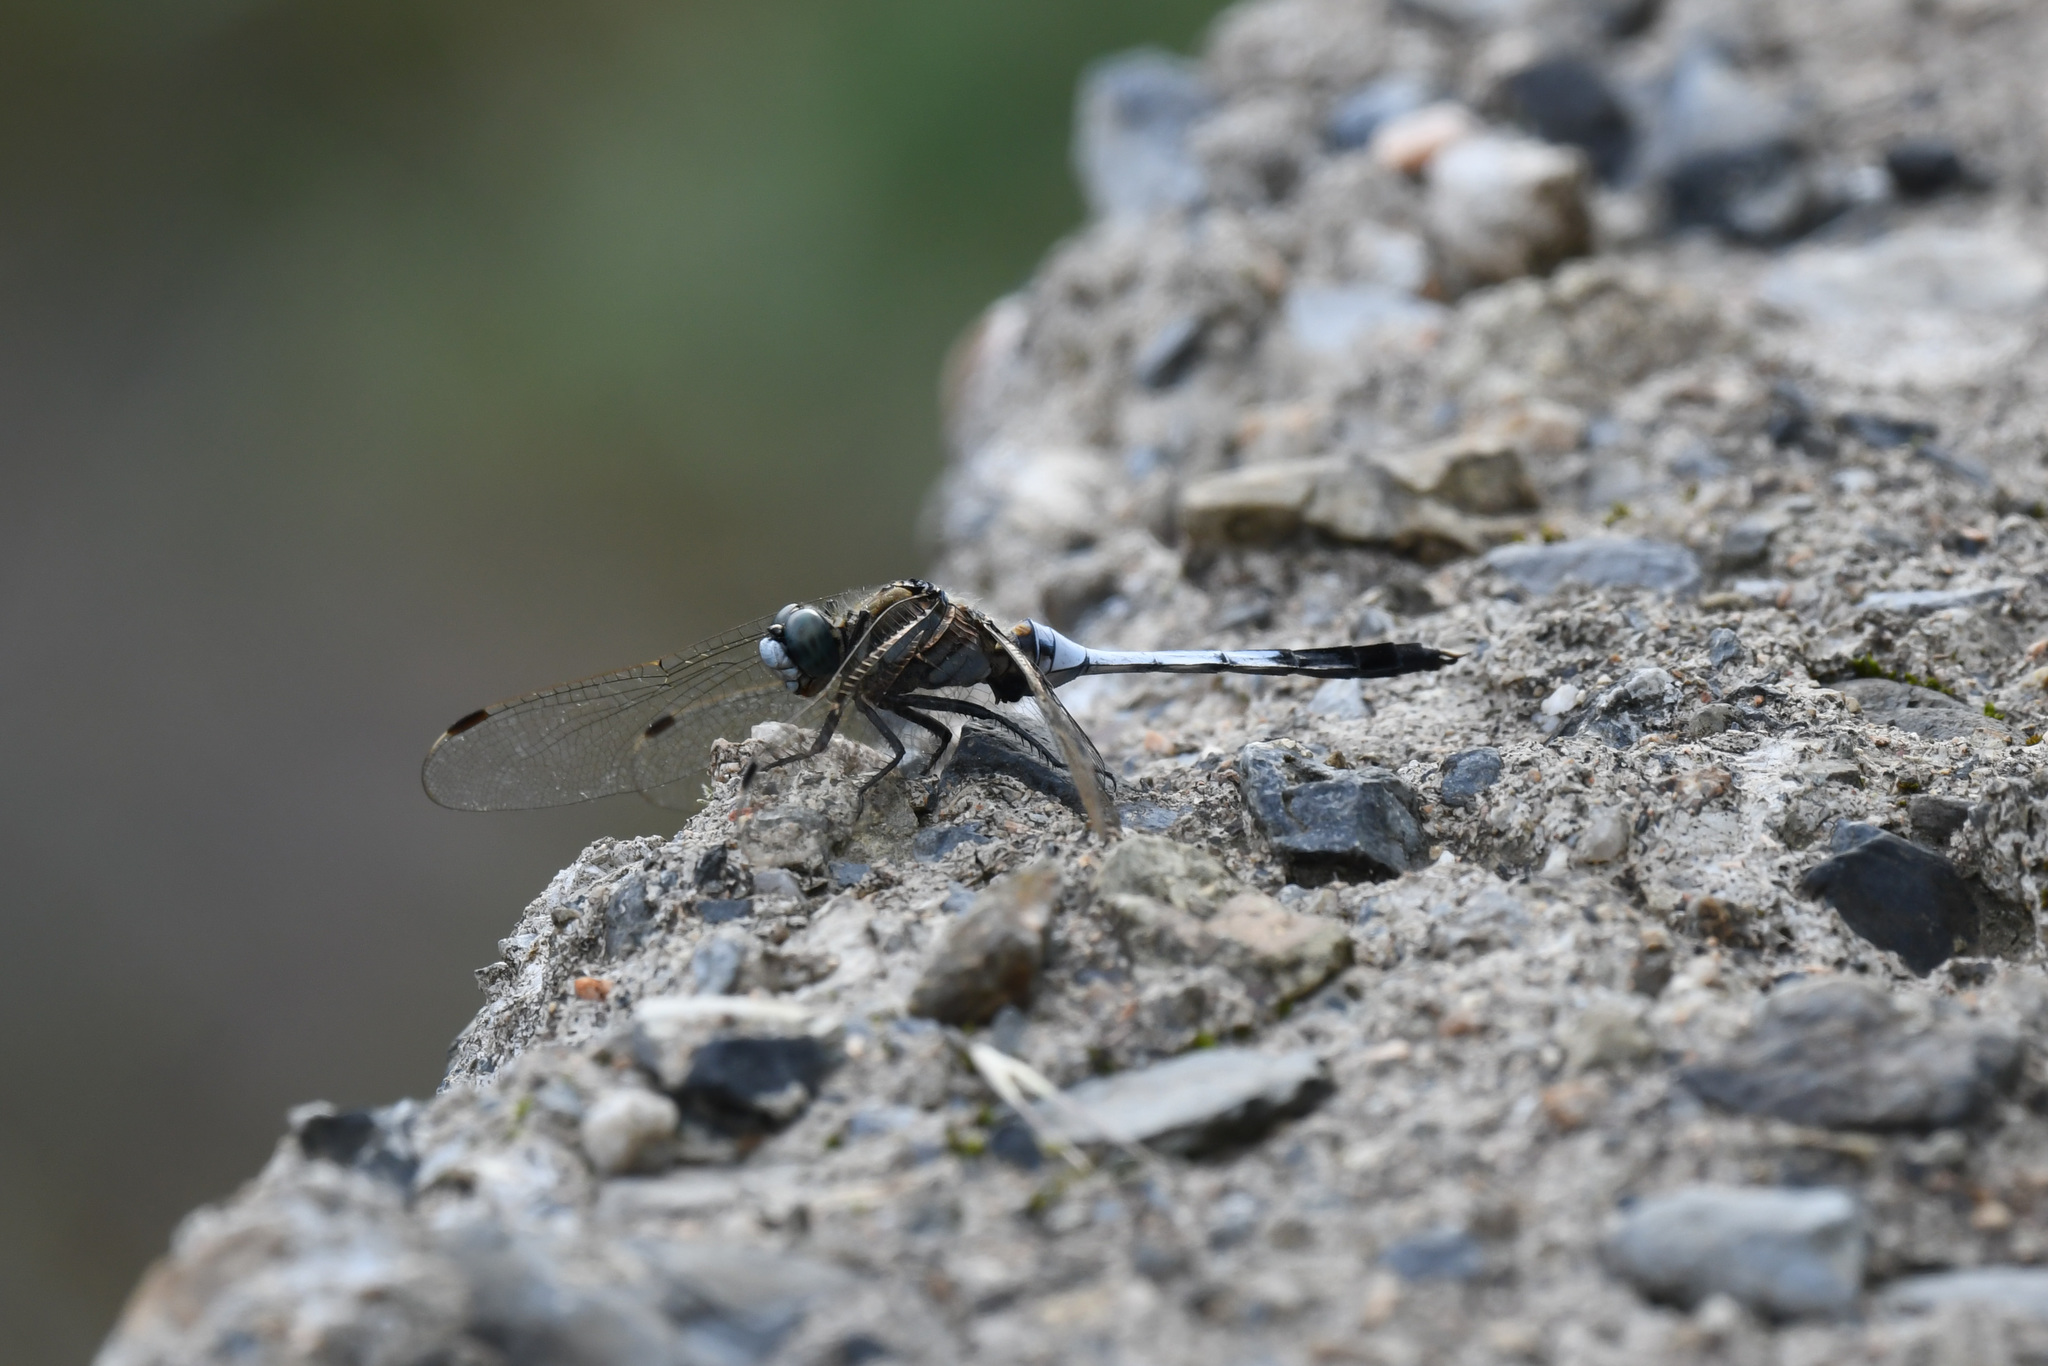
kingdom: Animalia
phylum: Arthropoda
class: Insecta
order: Odonata
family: Libellulidae
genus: Orthetrum
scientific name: Orthetrum albistylum
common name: White-tailed skimmer
